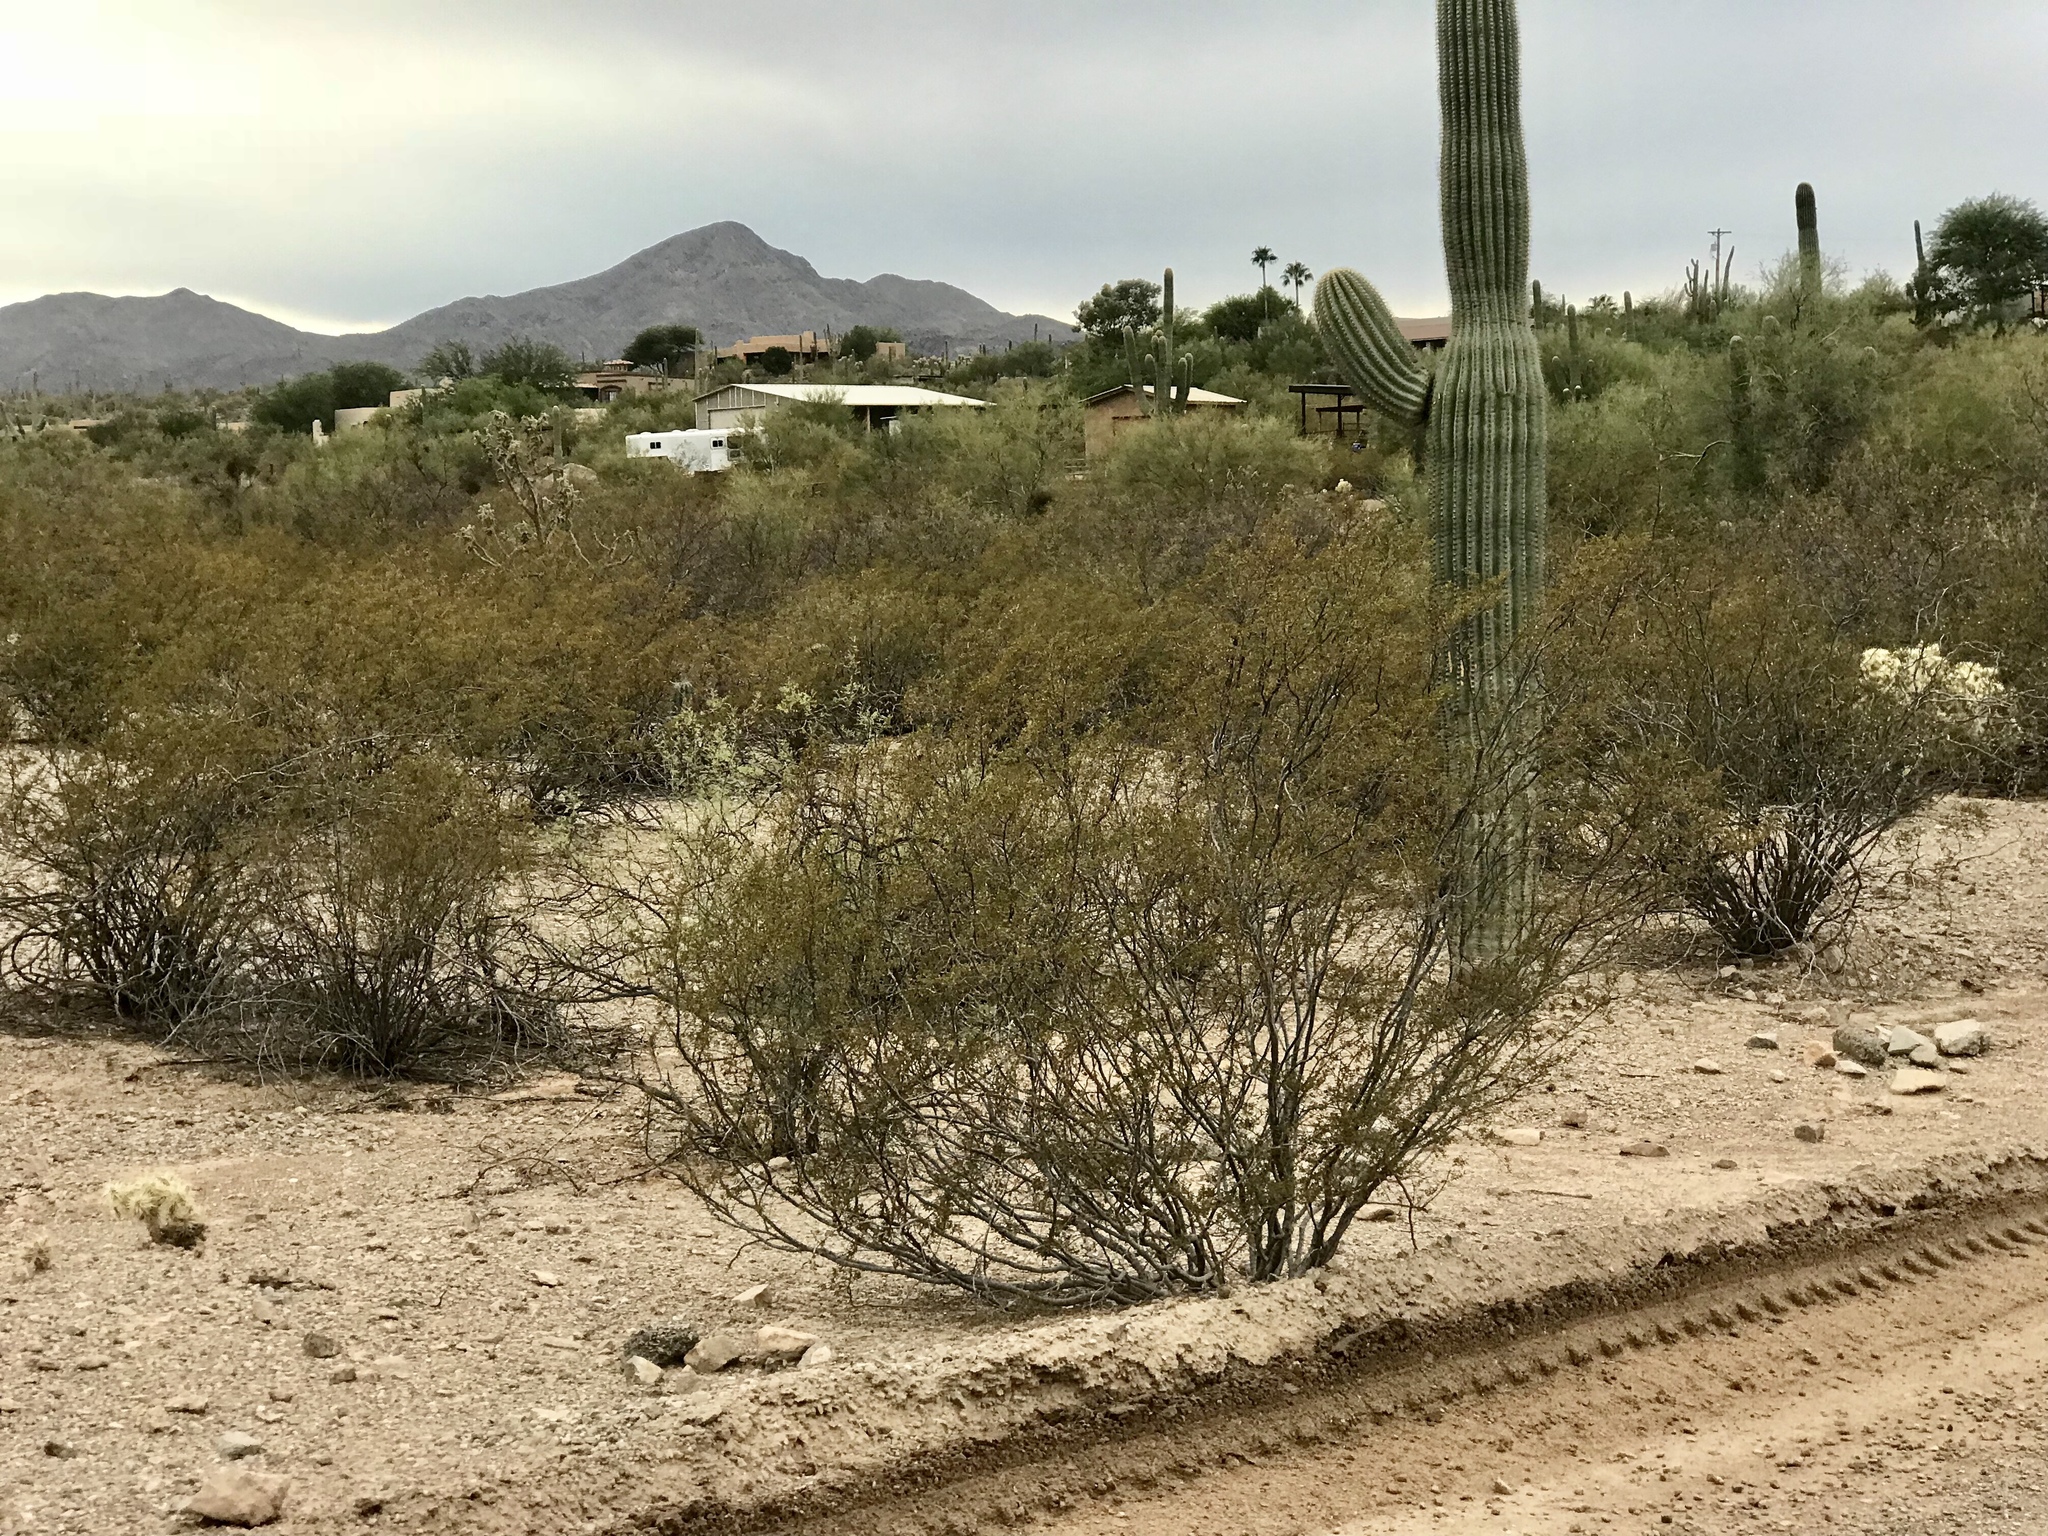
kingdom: Plantae
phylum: Tracheophyta
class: Magnoliopsida
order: Zygophyllales
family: Zygophyllaceae
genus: Larrea
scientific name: Larrea tridentata
